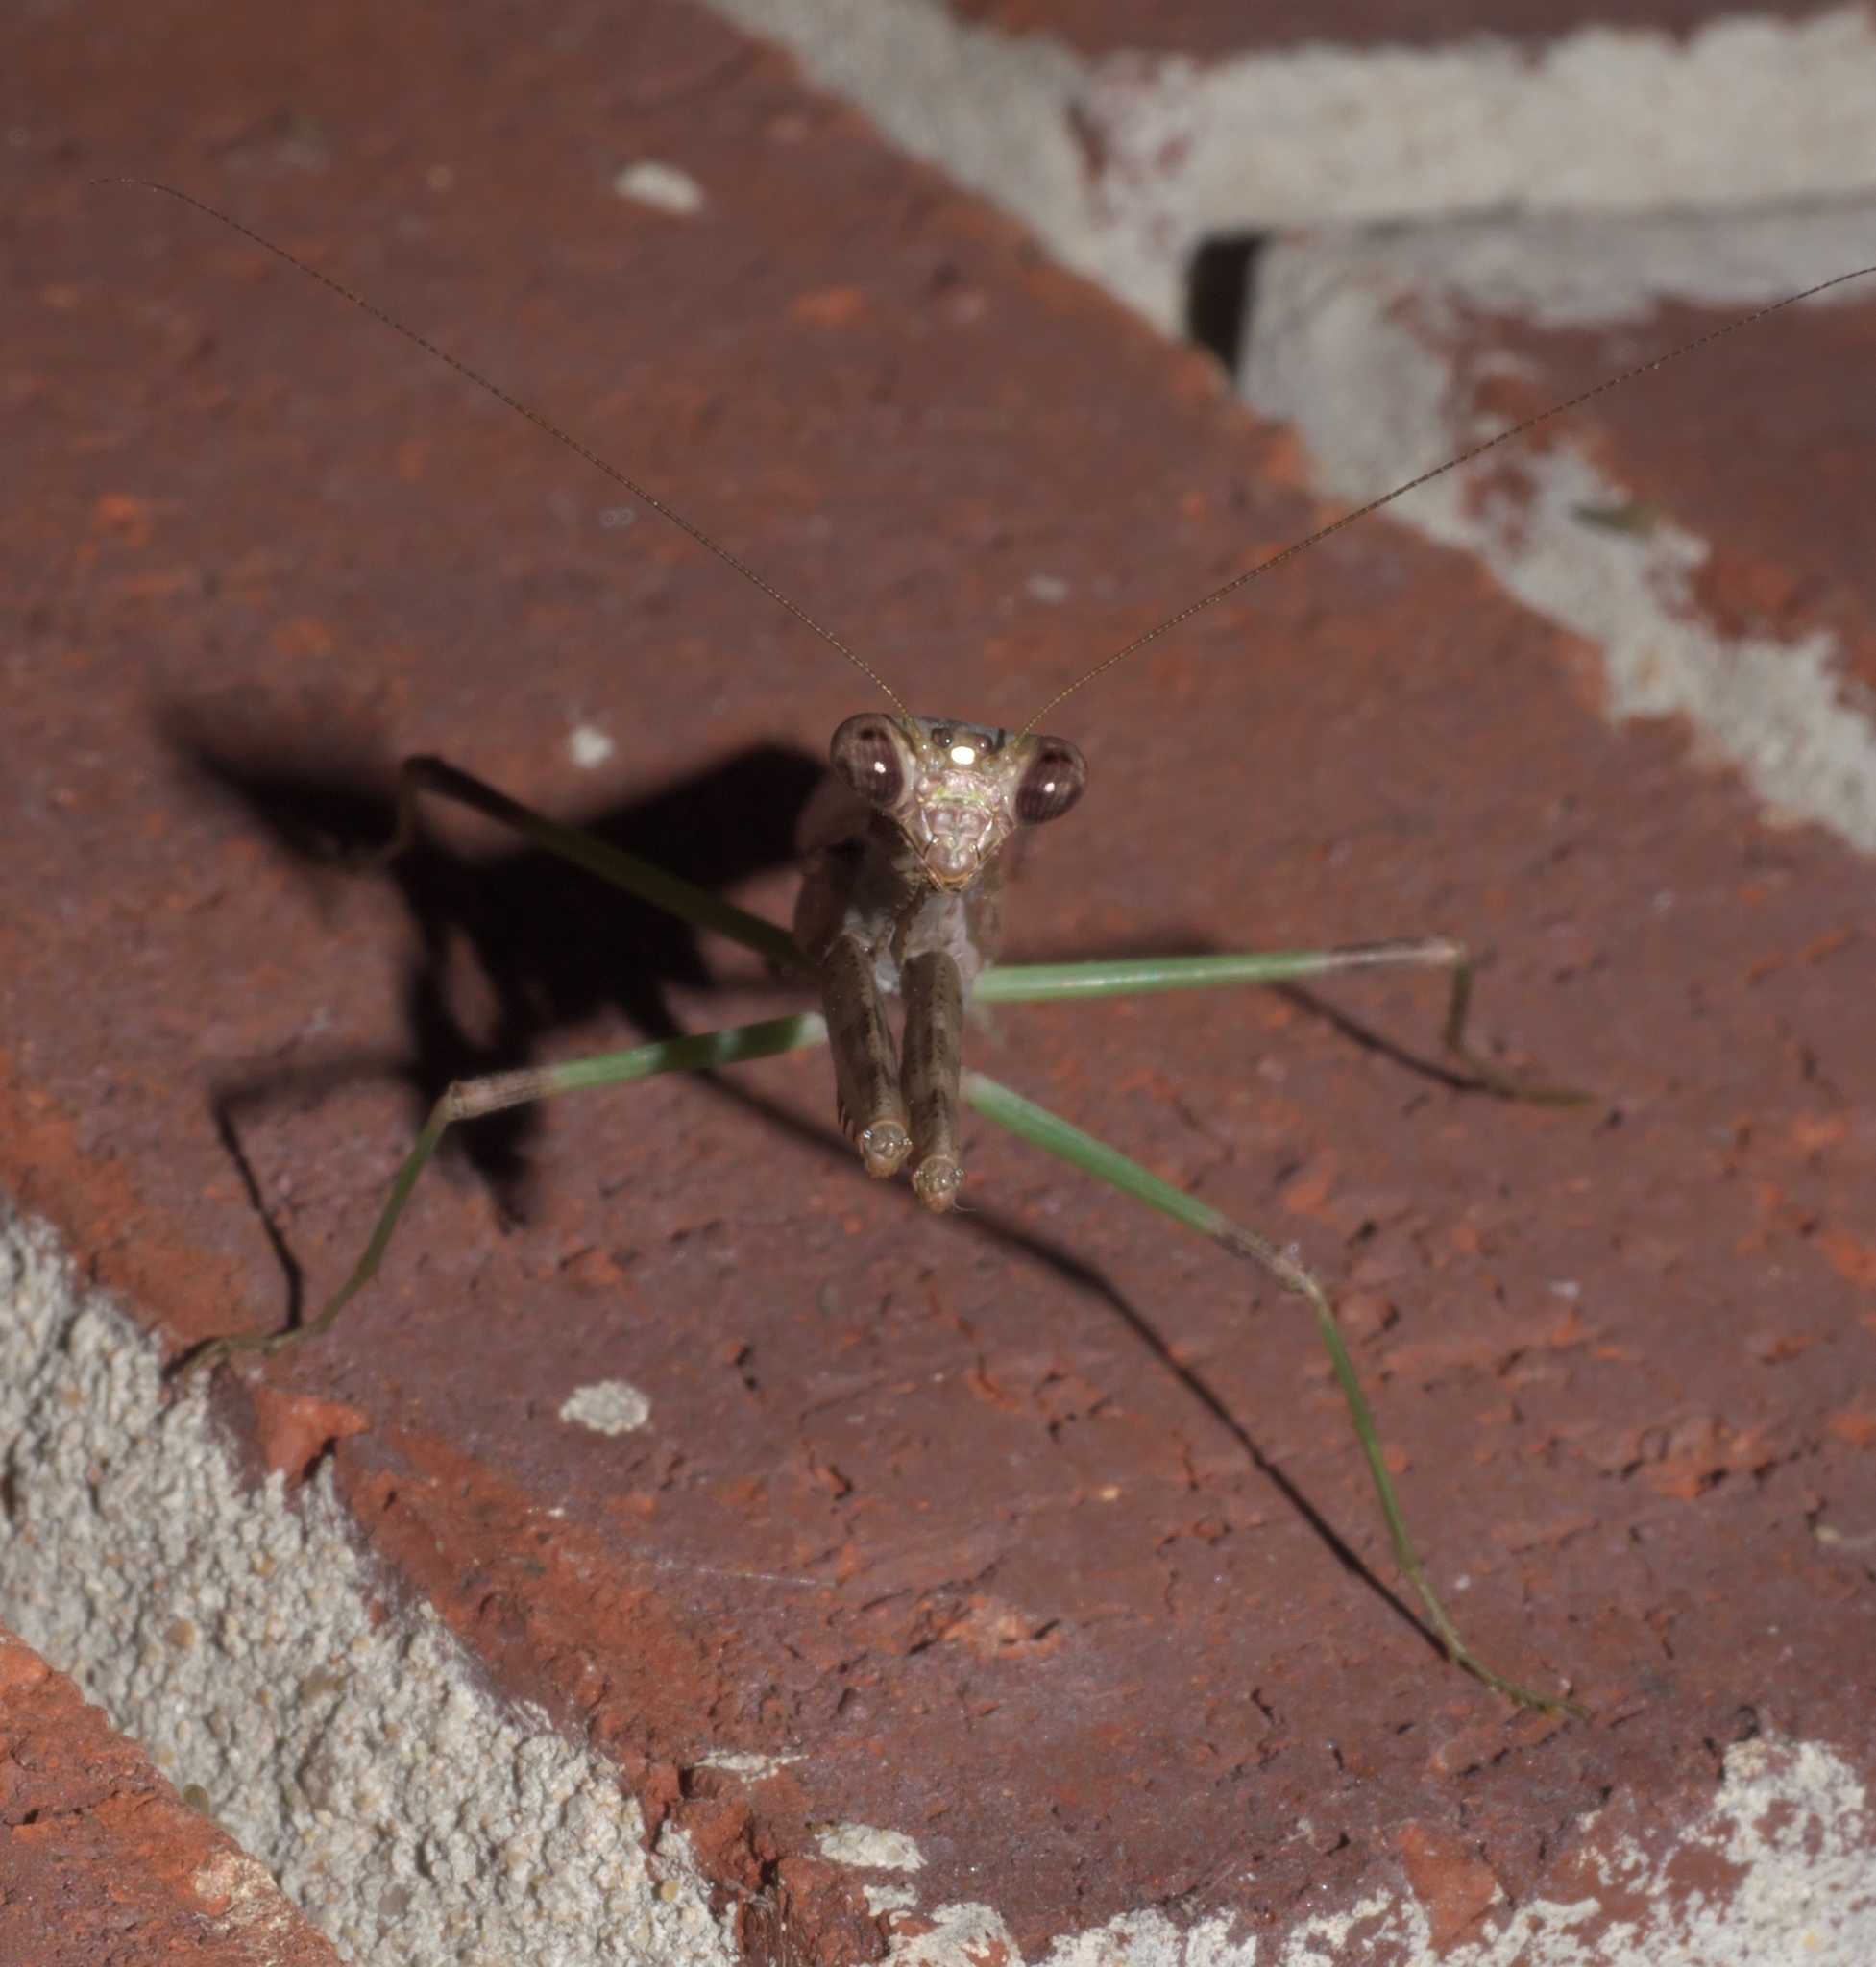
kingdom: Animalia
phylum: Arthropoda
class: Insecta
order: Mantodea
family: Mantidae
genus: Stagmomantis
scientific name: Stagmomantis carolina
